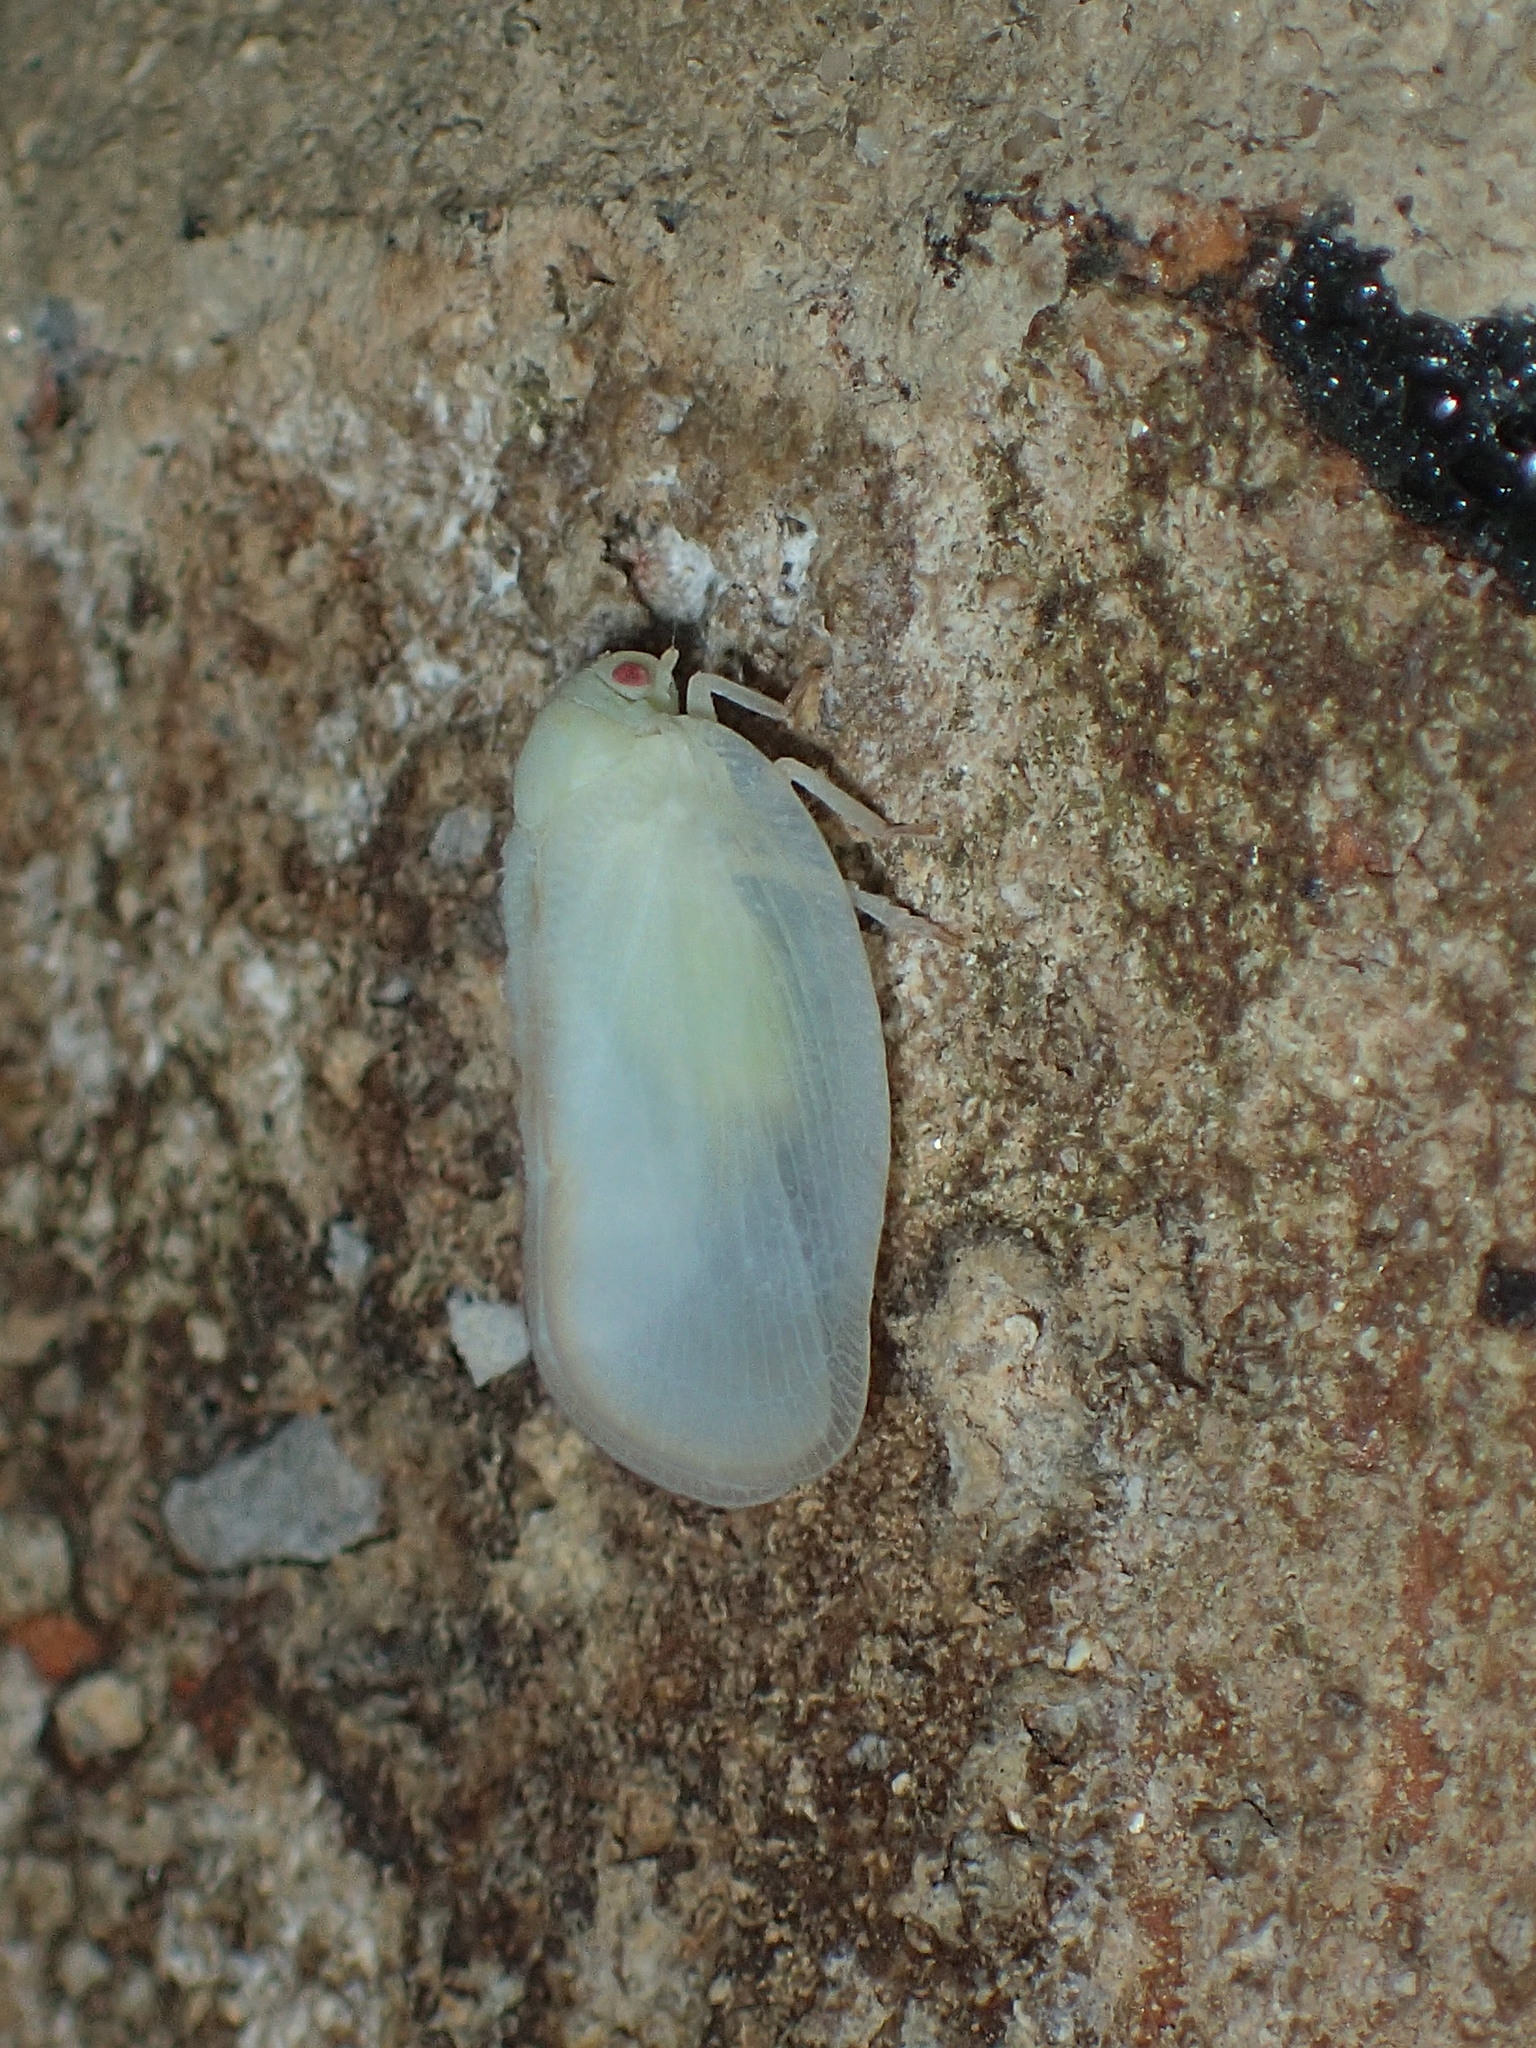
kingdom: Animalia
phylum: Arthropoda
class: Insecta
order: Hemiptera
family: Flatidae
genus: Ormenoides
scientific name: Ormenoides venusta
